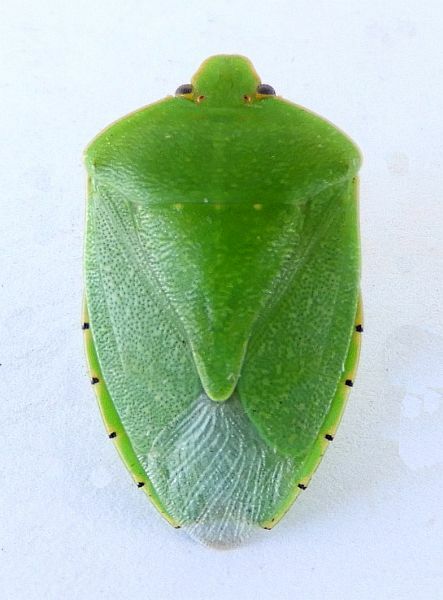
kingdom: Animalia
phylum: Arthropoda
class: Insecta
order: Hemiptera
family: Pentatomidae
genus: Chinavia
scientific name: Chinavia hilaris
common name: Green stink bug
